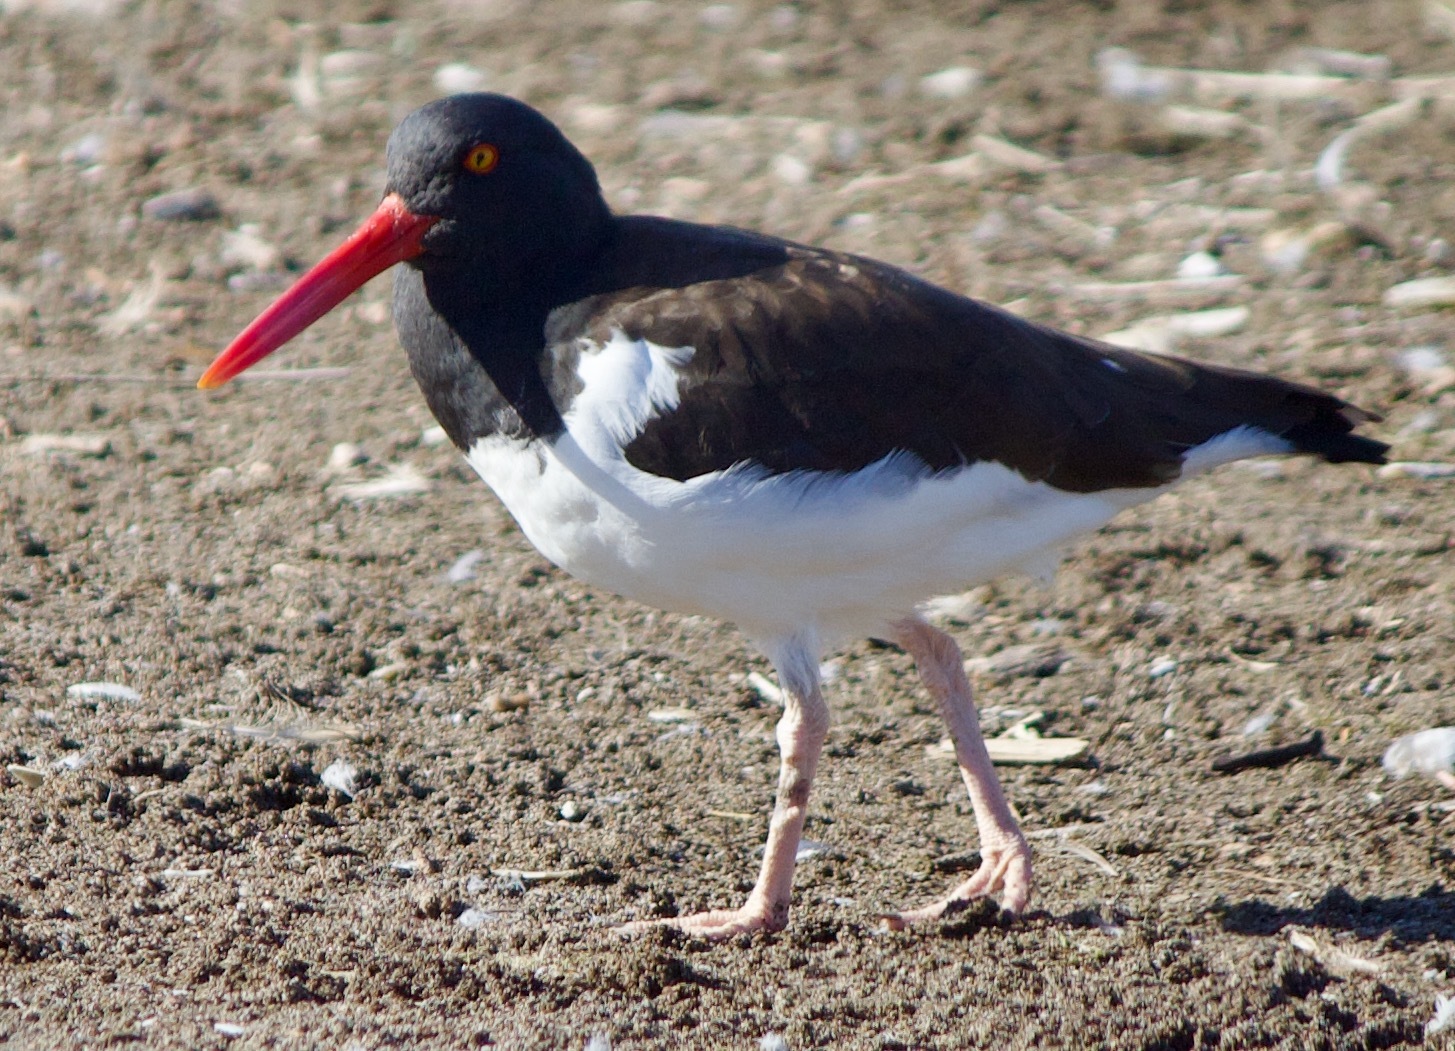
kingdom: Animalia
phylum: Chordata
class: Aves
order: Charadriiformes
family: Haematopodidae
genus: Haematopus
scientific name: Haematopus palliatus
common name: American oystercatcher
